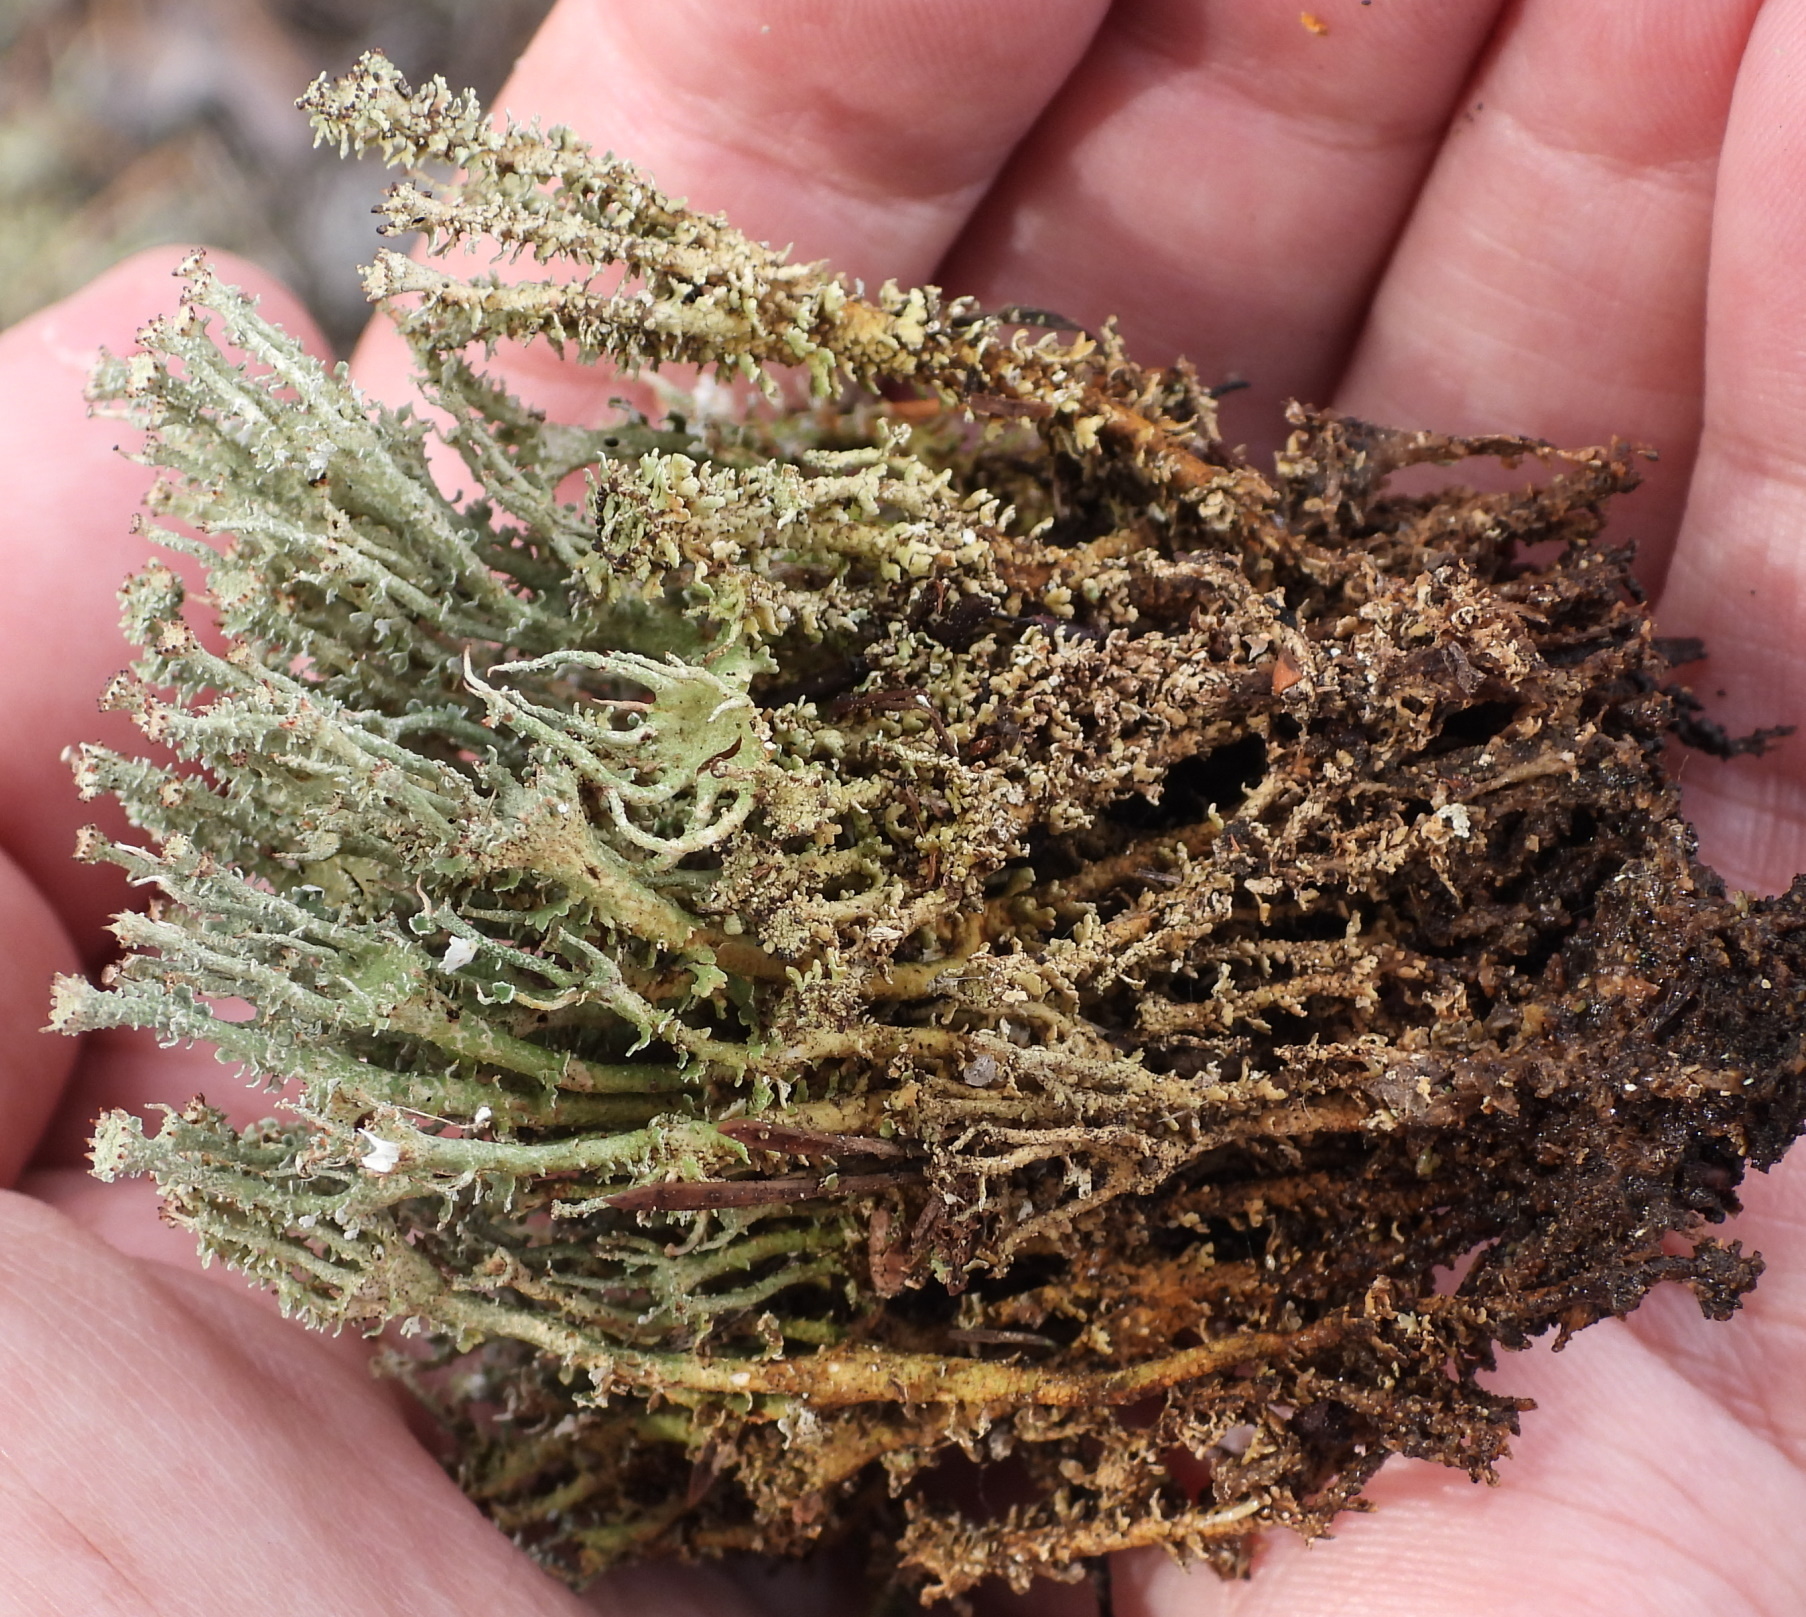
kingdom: Fungi
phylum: Ascomycota
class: Lecanoromycetes
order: Lecanorales
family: Cladoniaceae
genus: Cladonia
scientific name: Cladonia bellidiflora
